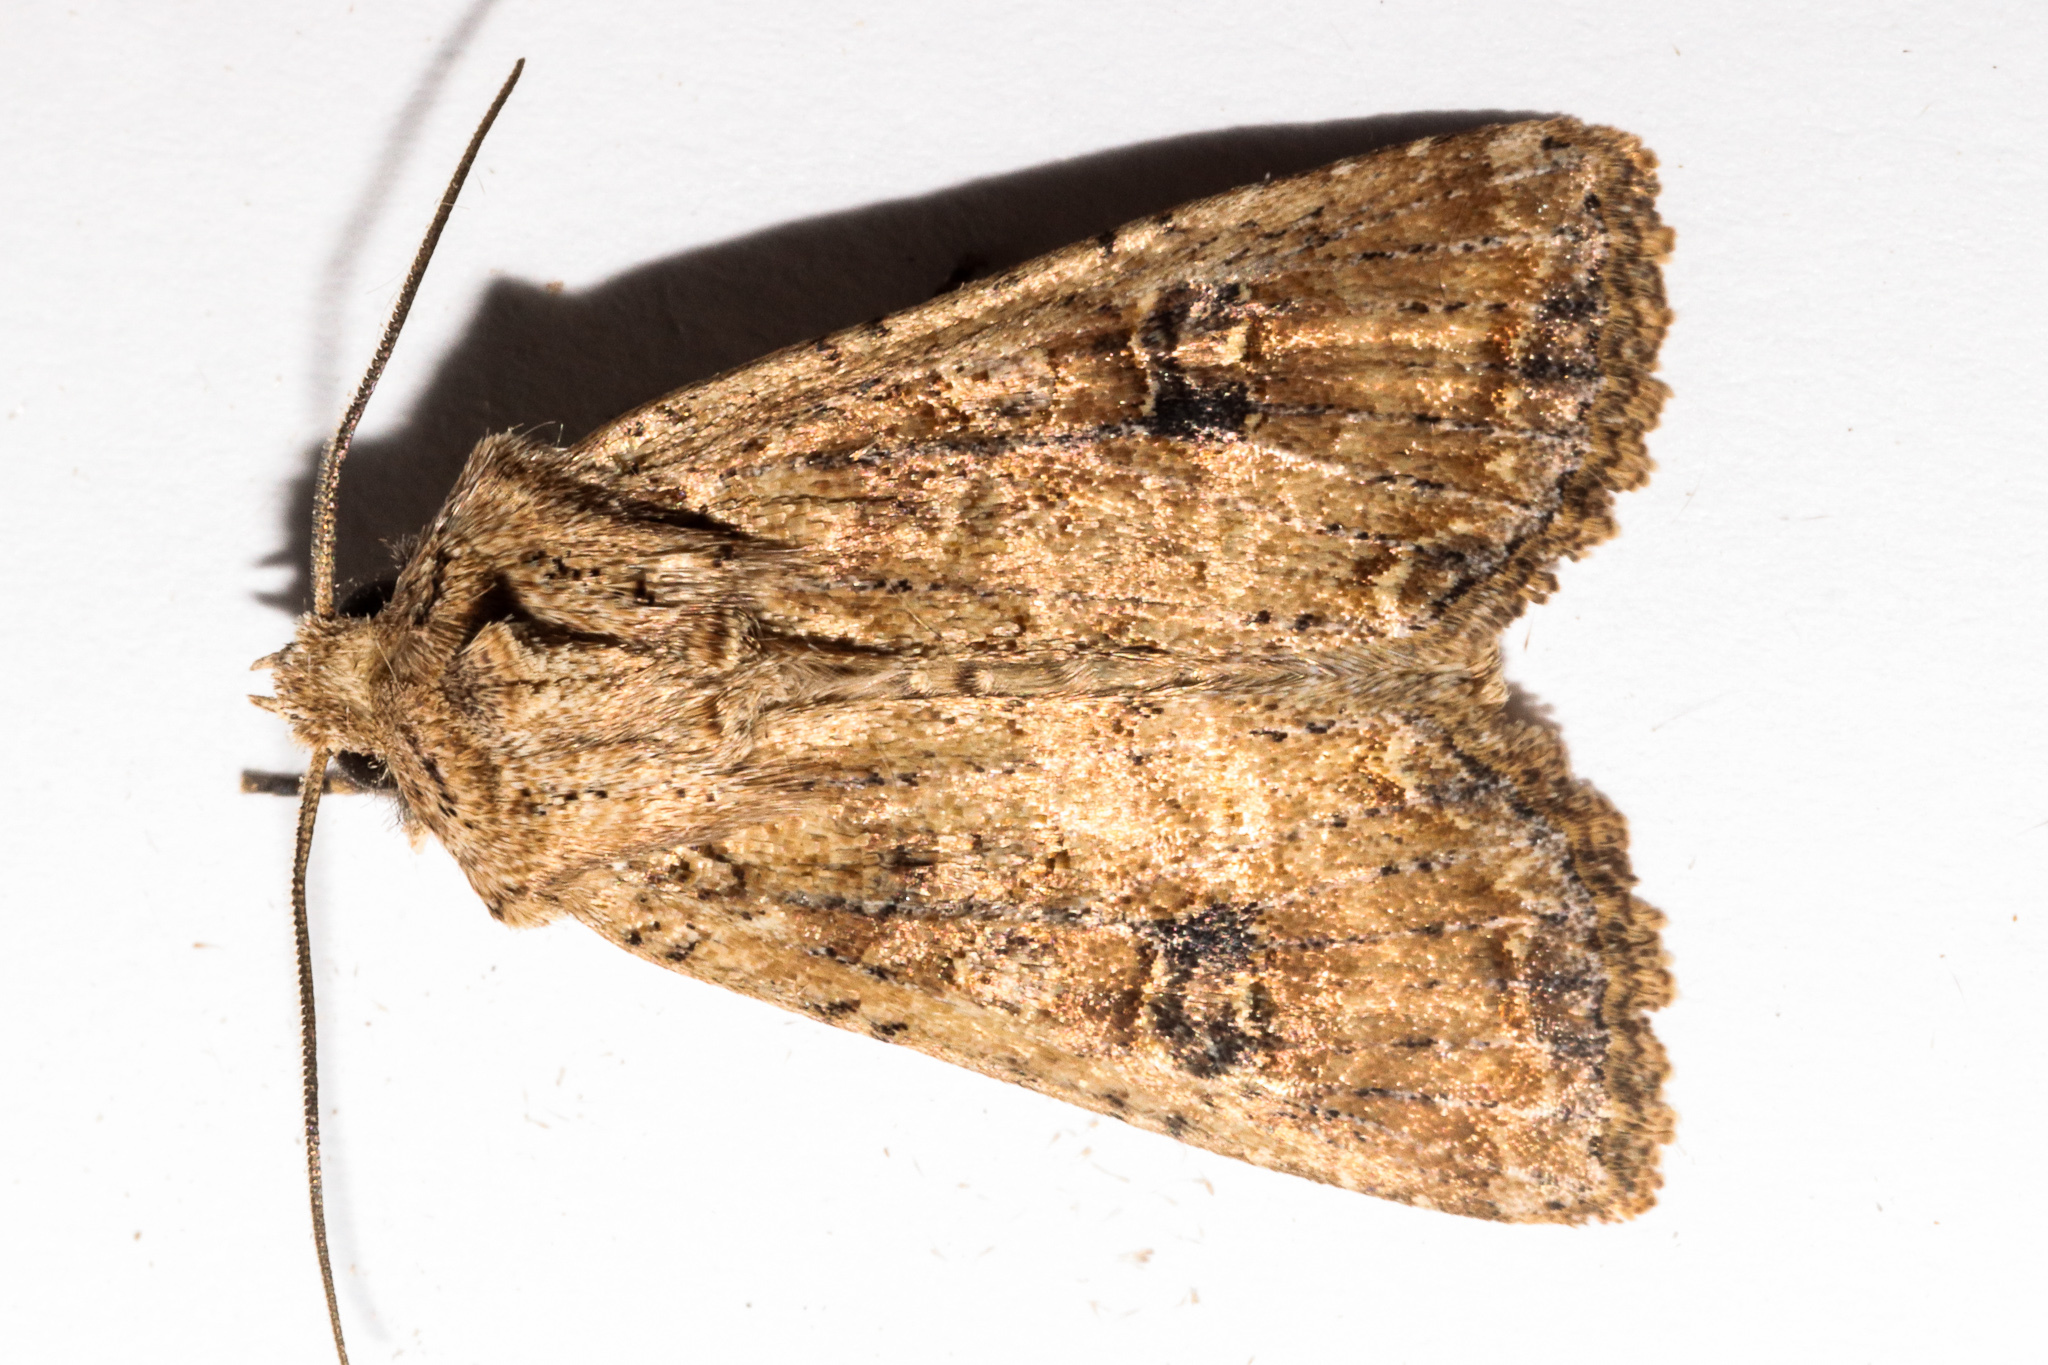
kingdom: Animalia
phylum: Arthropoda
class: Insecta
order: Lepidoptera
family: Noctuidae
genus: Ichneutica
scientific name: Ichneutica morosa
